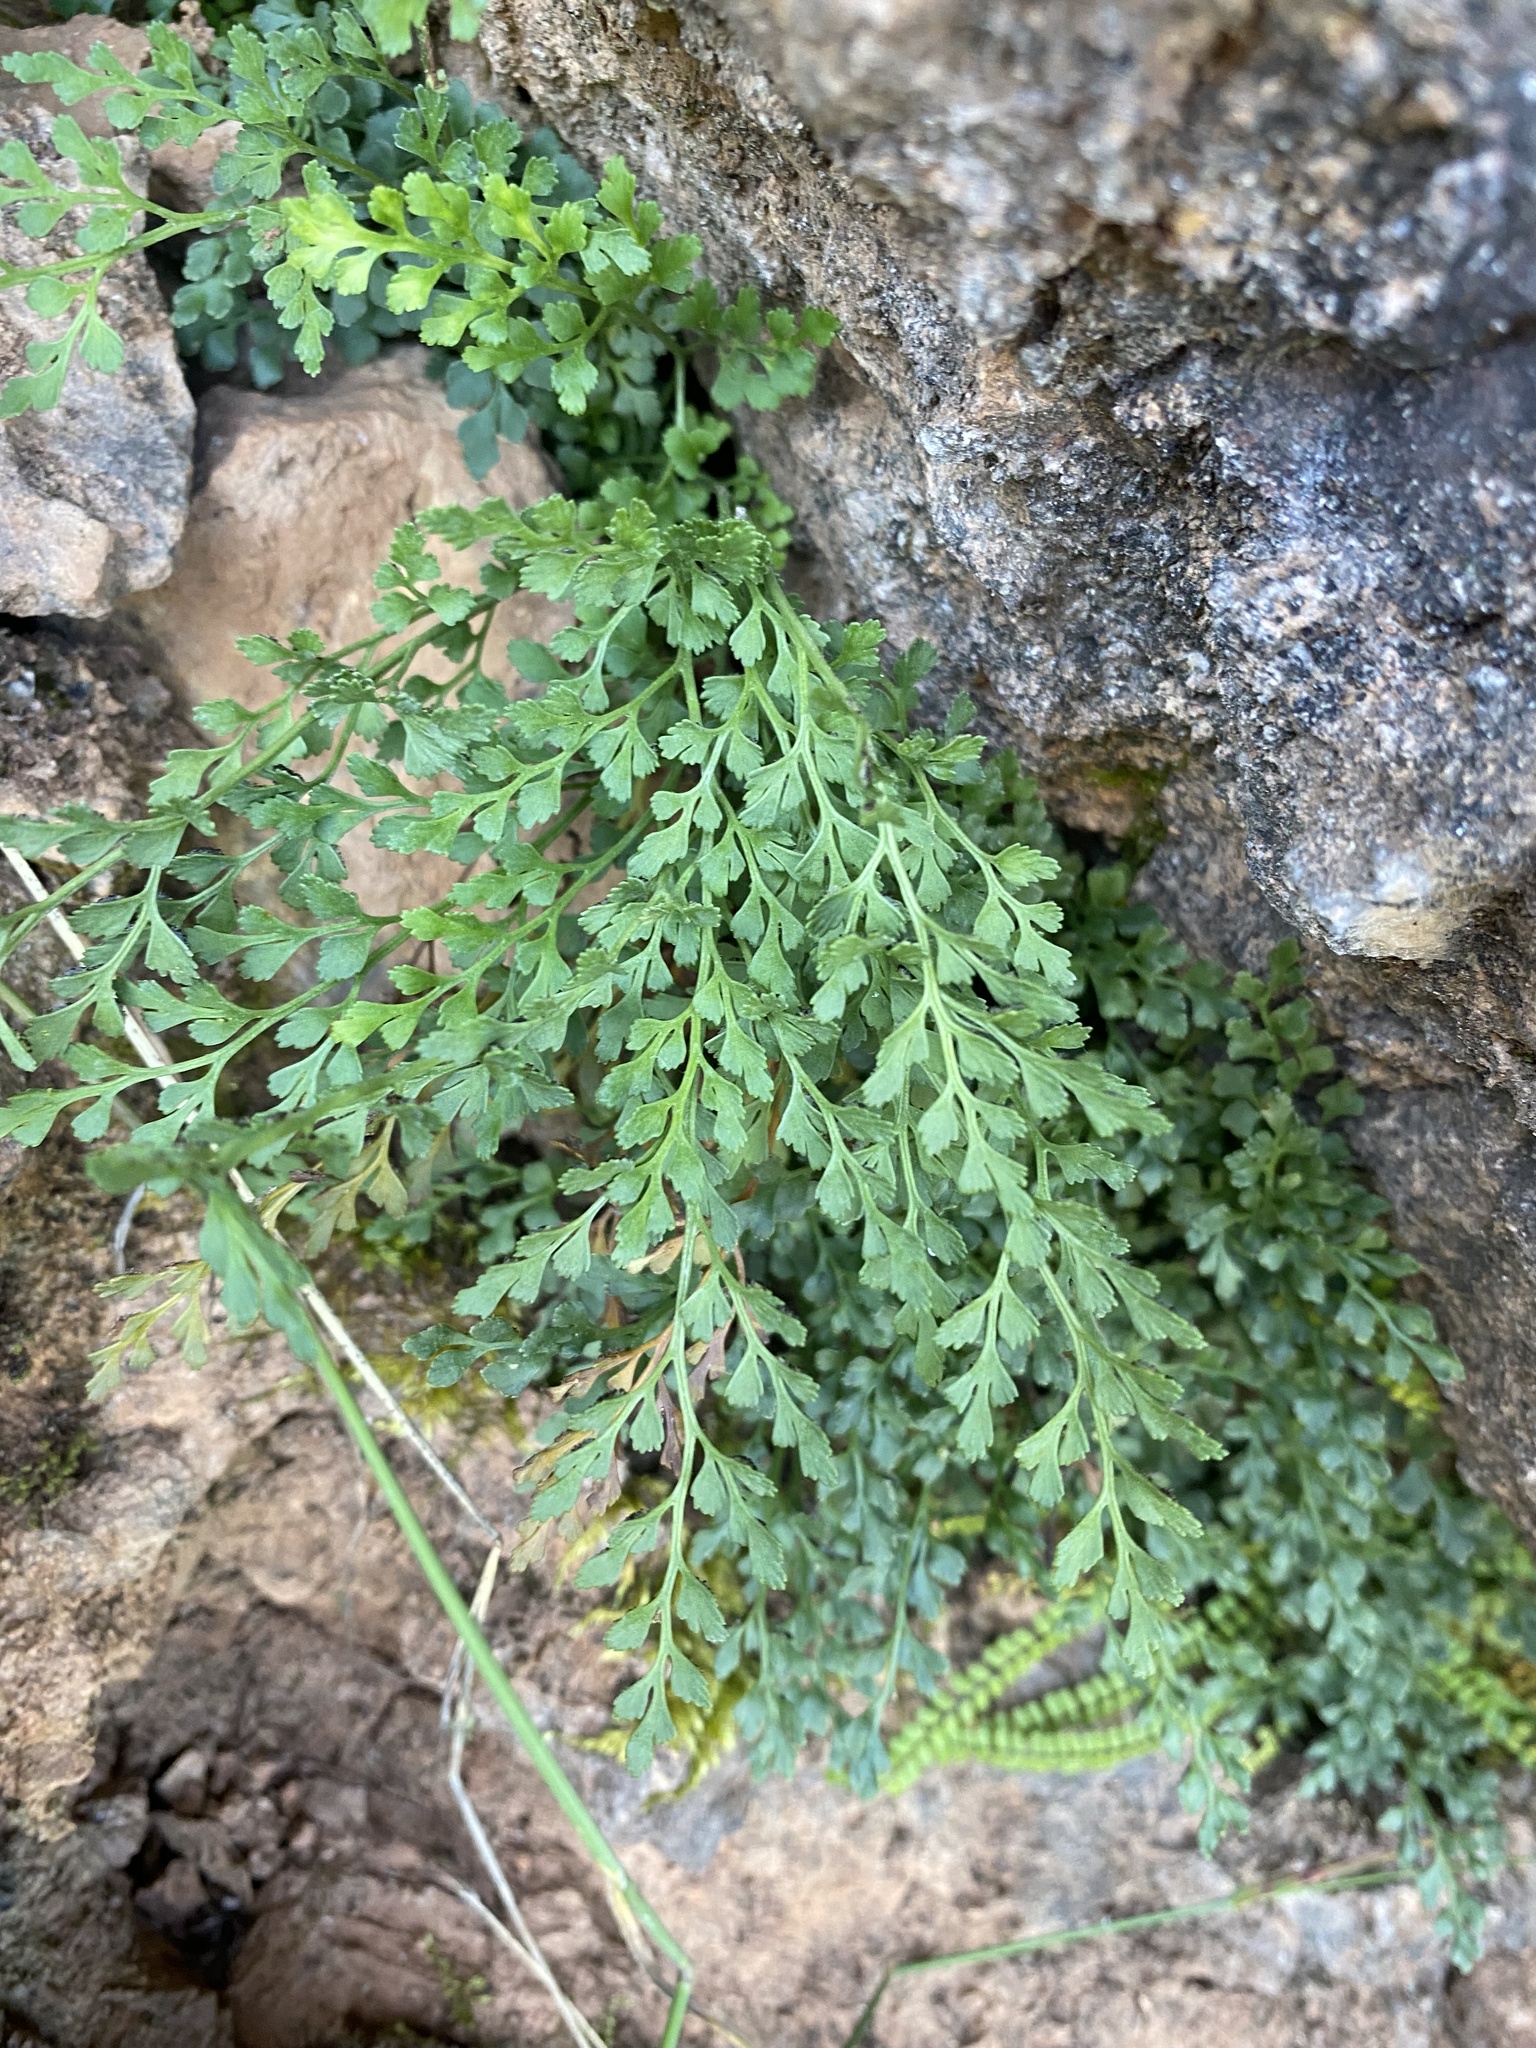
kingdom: Plantae
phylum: Tracheophyta
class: Polypodiopsida
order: Polypodiales
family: Aspleniaceae
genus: Asplenium
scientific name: Asplenium ruta-muraria
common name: Wall-rue
